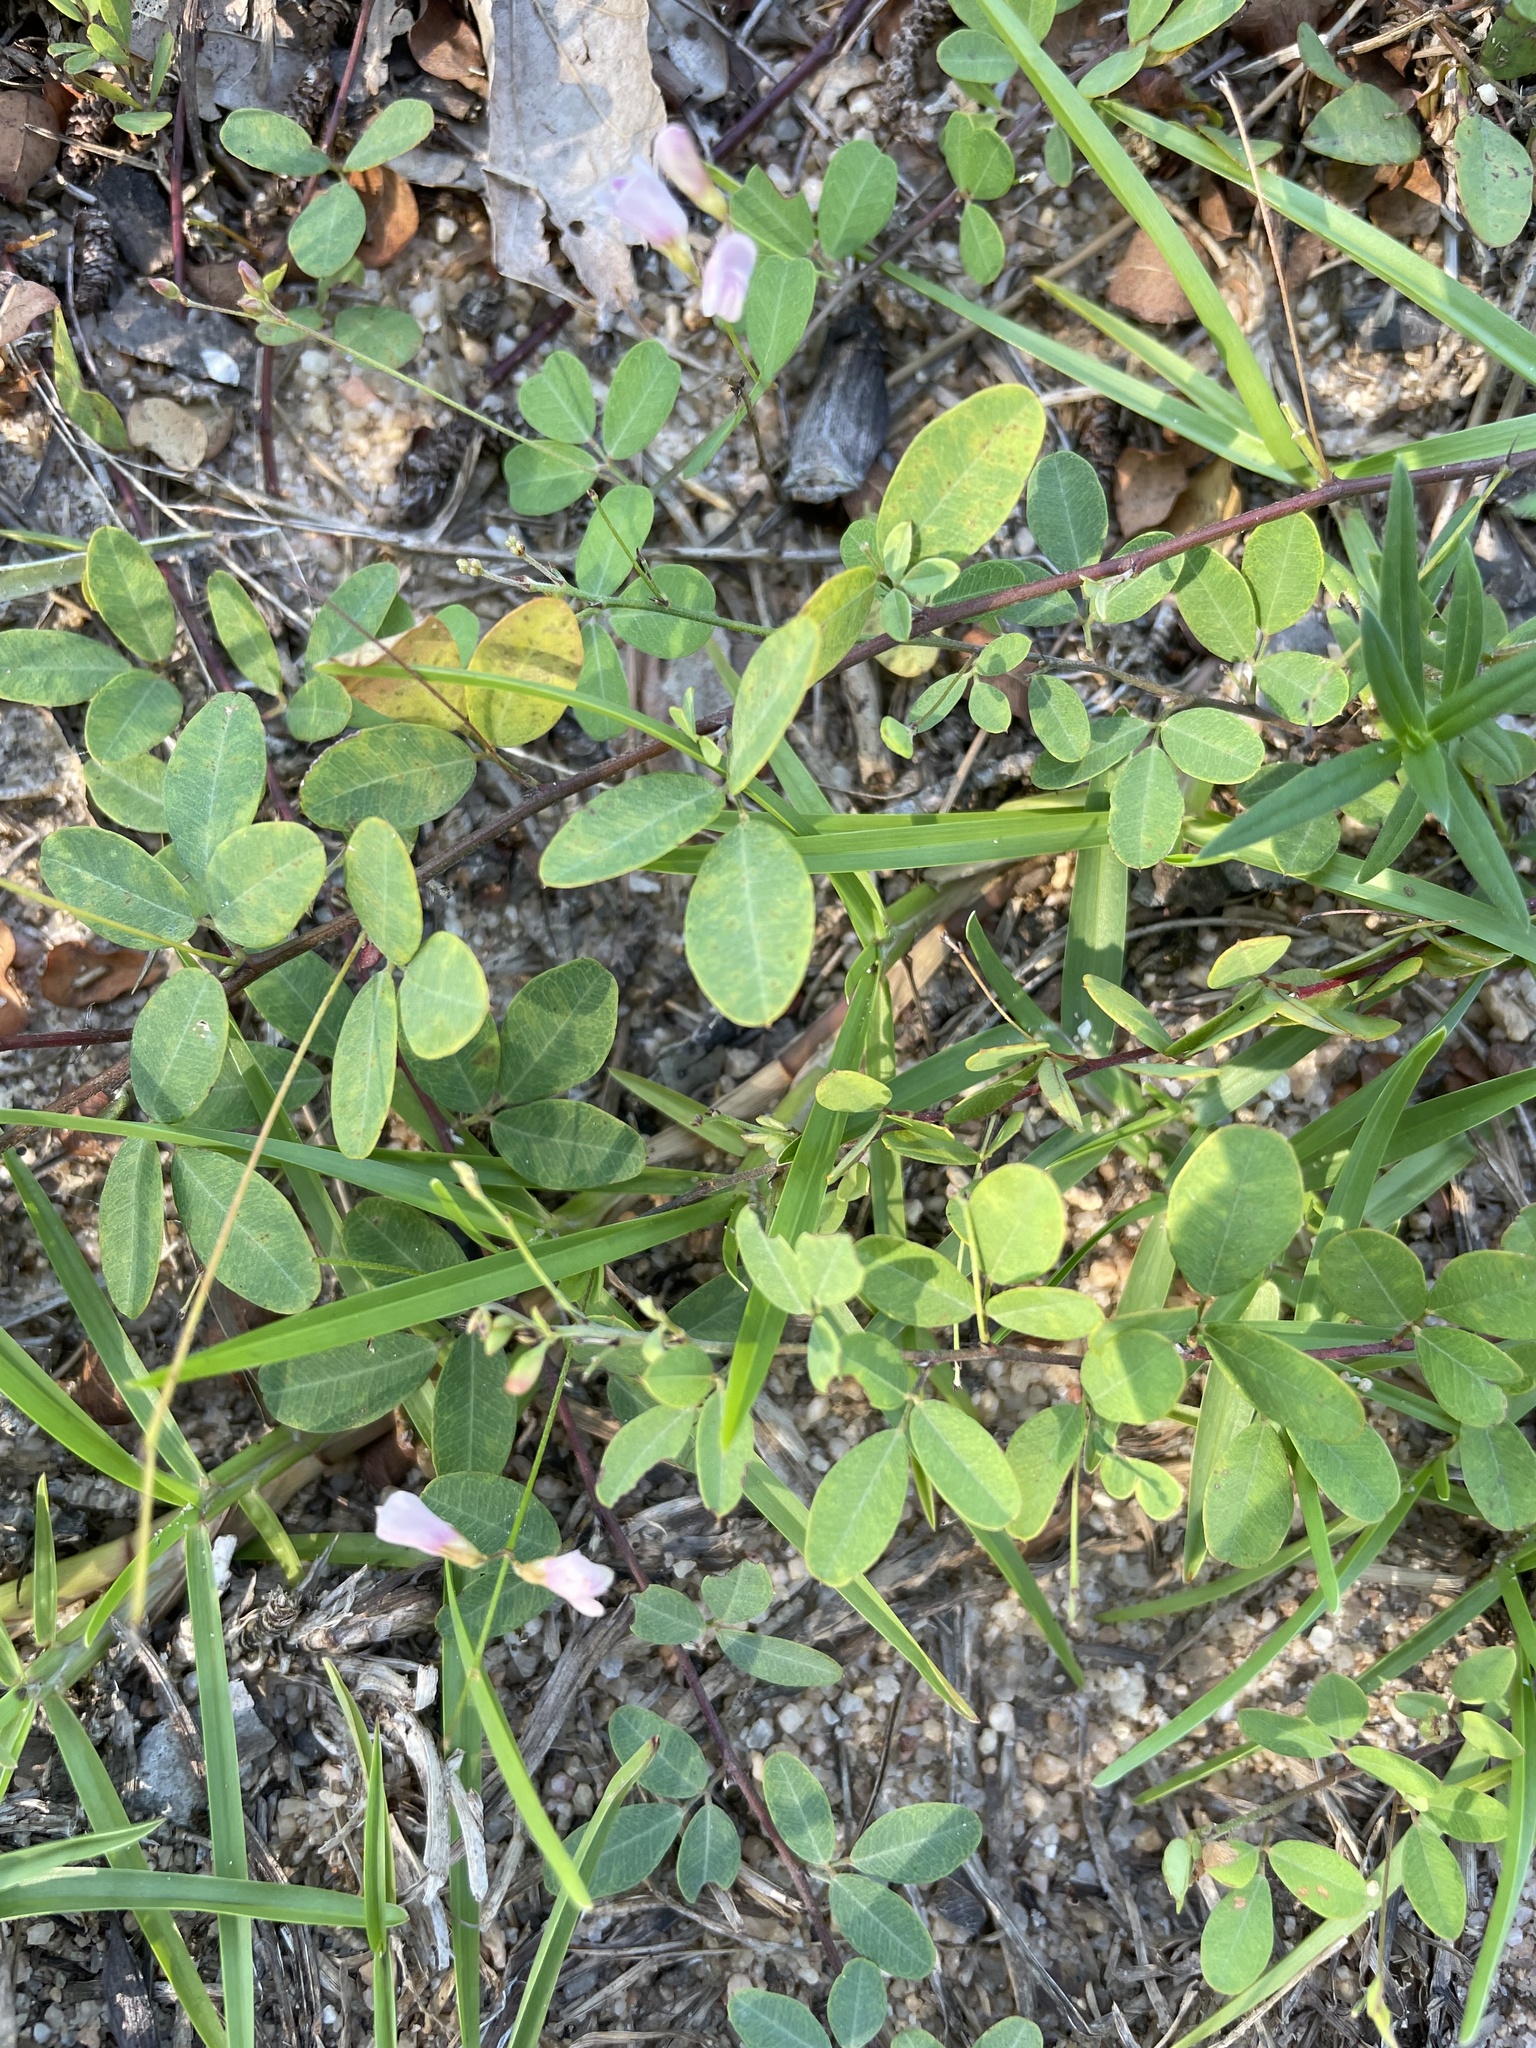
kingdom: Plantae
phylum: Tracheophyta
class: Magnoliopsida
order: Fabales
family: Fabaceae
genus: Lespedeza
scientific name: Lespedeza repens
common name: Creeping bush-clover
